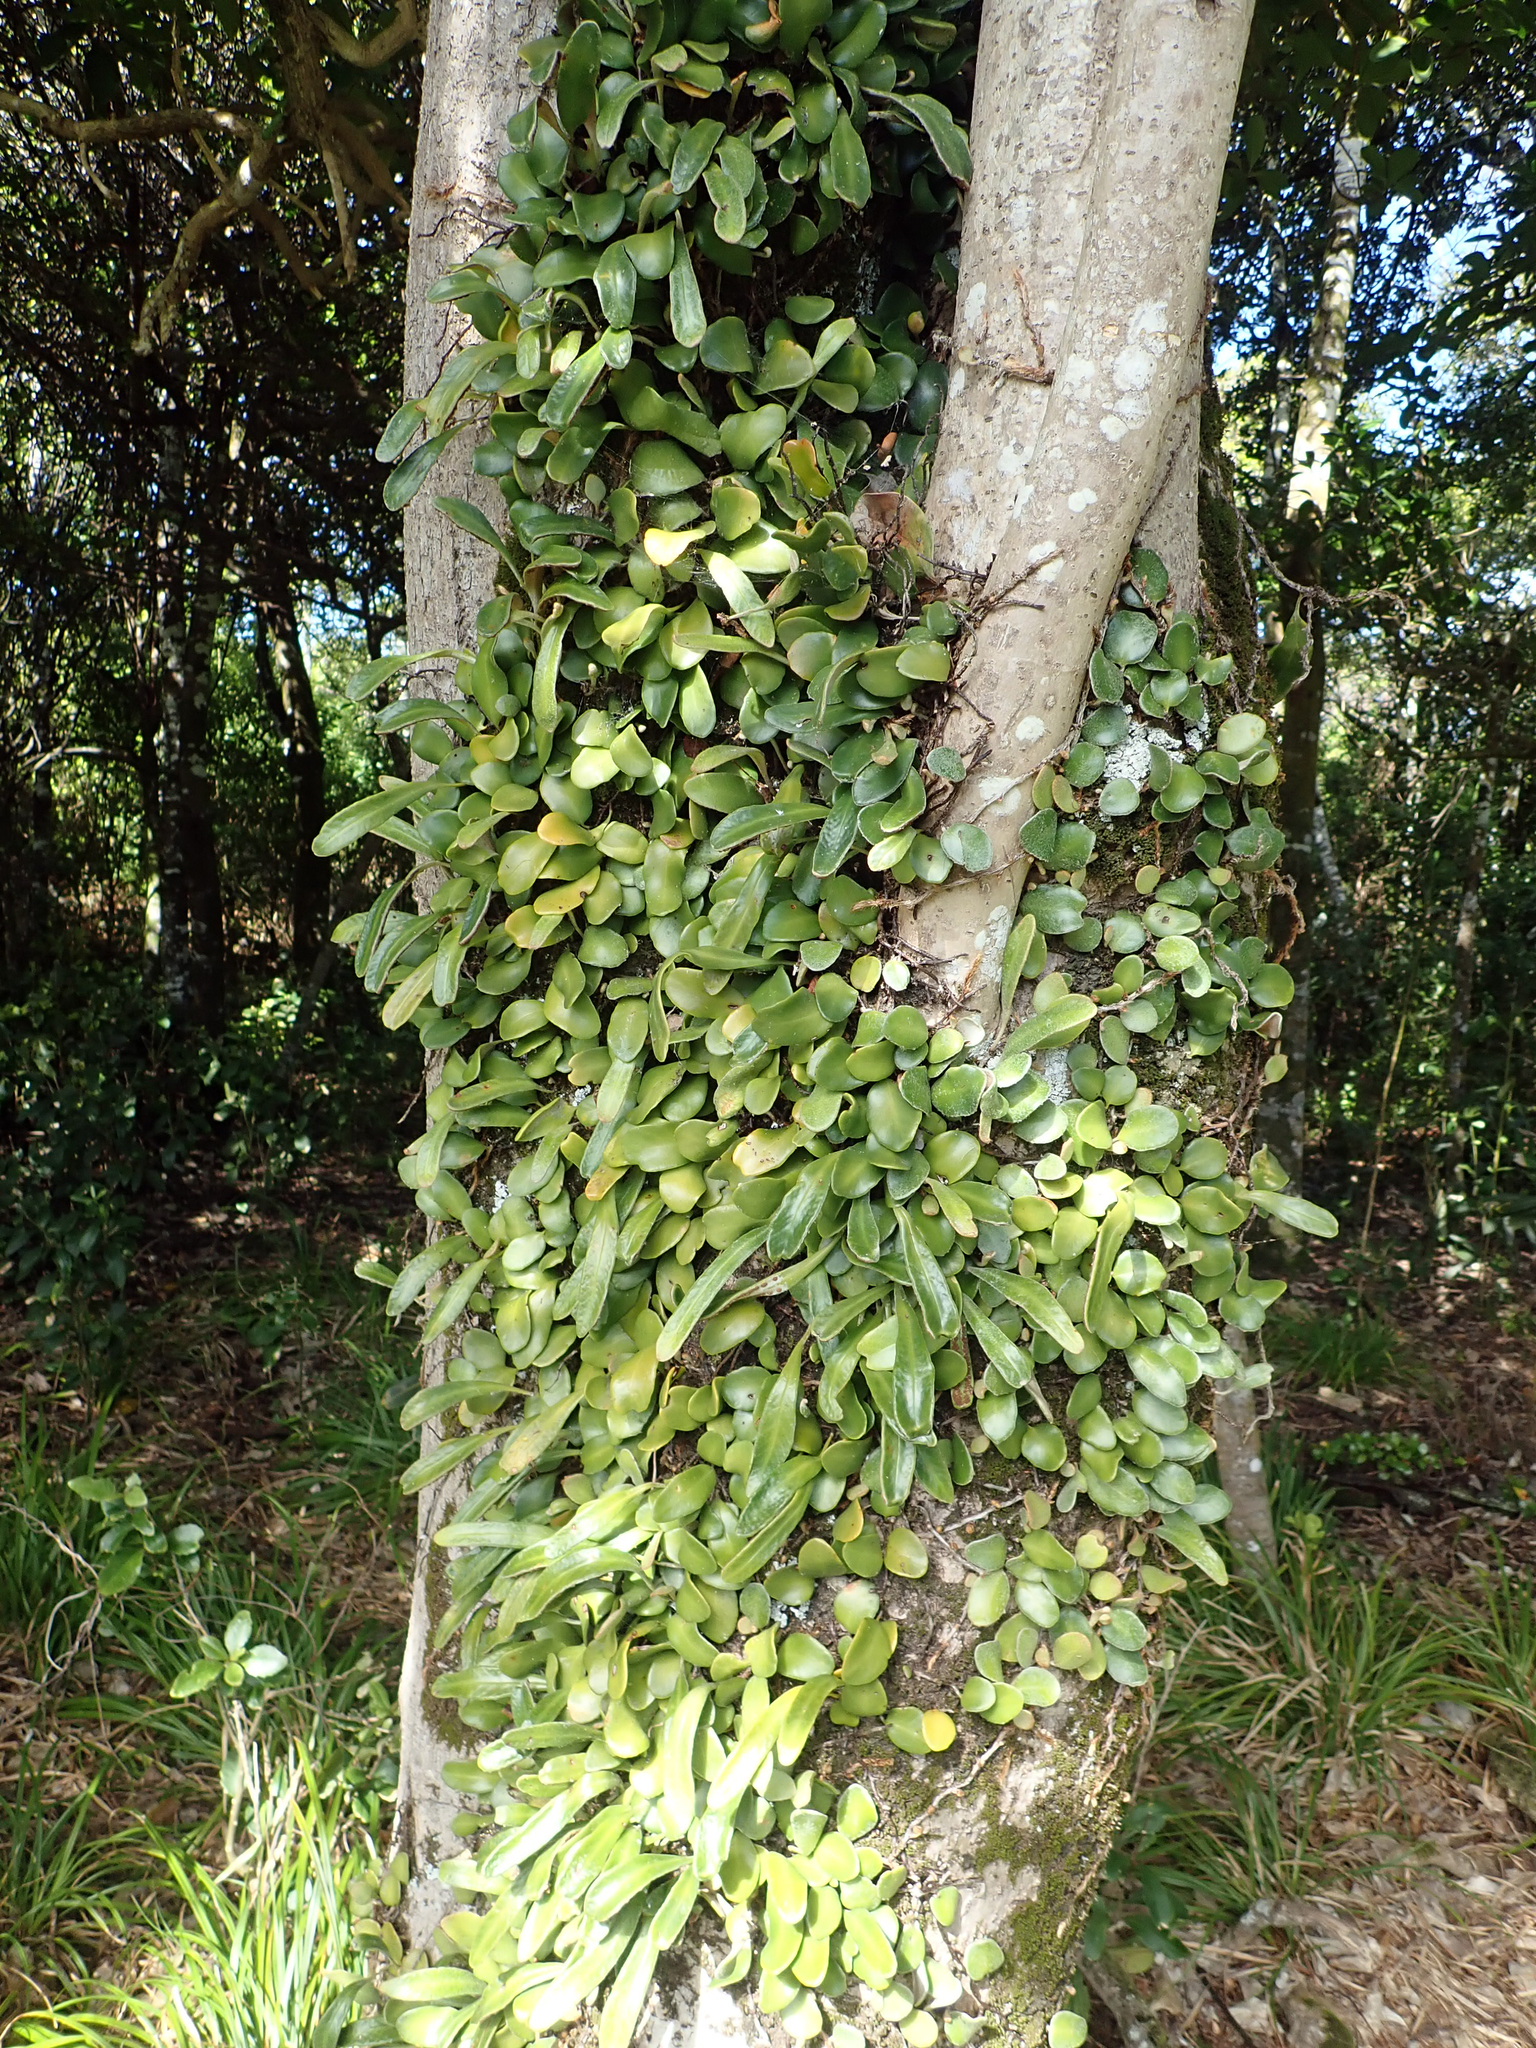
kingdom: Plantae
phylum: Tracheophyta
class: Polypodiopsida
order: Polypodiales
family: Polypodiaceae
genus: Pyrrosia
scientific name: Pyrrosia eleagnifolia
